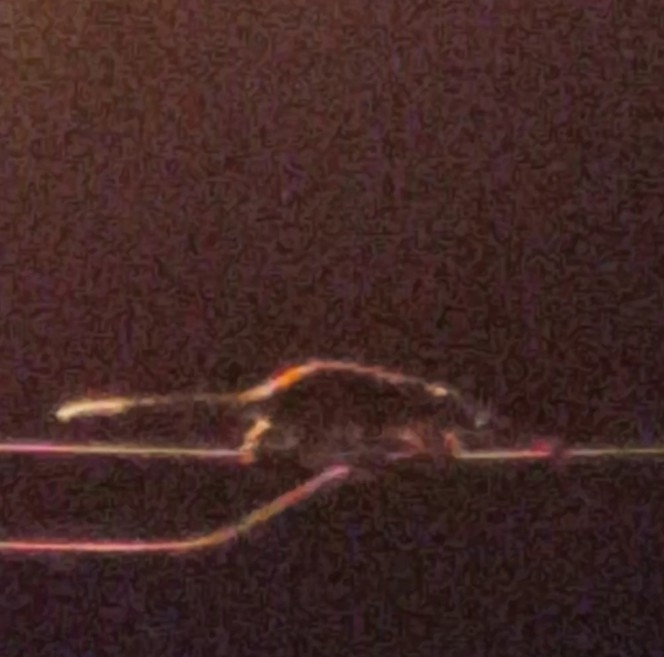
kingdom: Animalia
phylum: Chordata
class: Mammalia
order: Diprotodontia
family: Pseudocheiridae
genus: Pseudocheirus
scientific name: Pseudocheirus peregrinus
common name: Common ringtail possum
